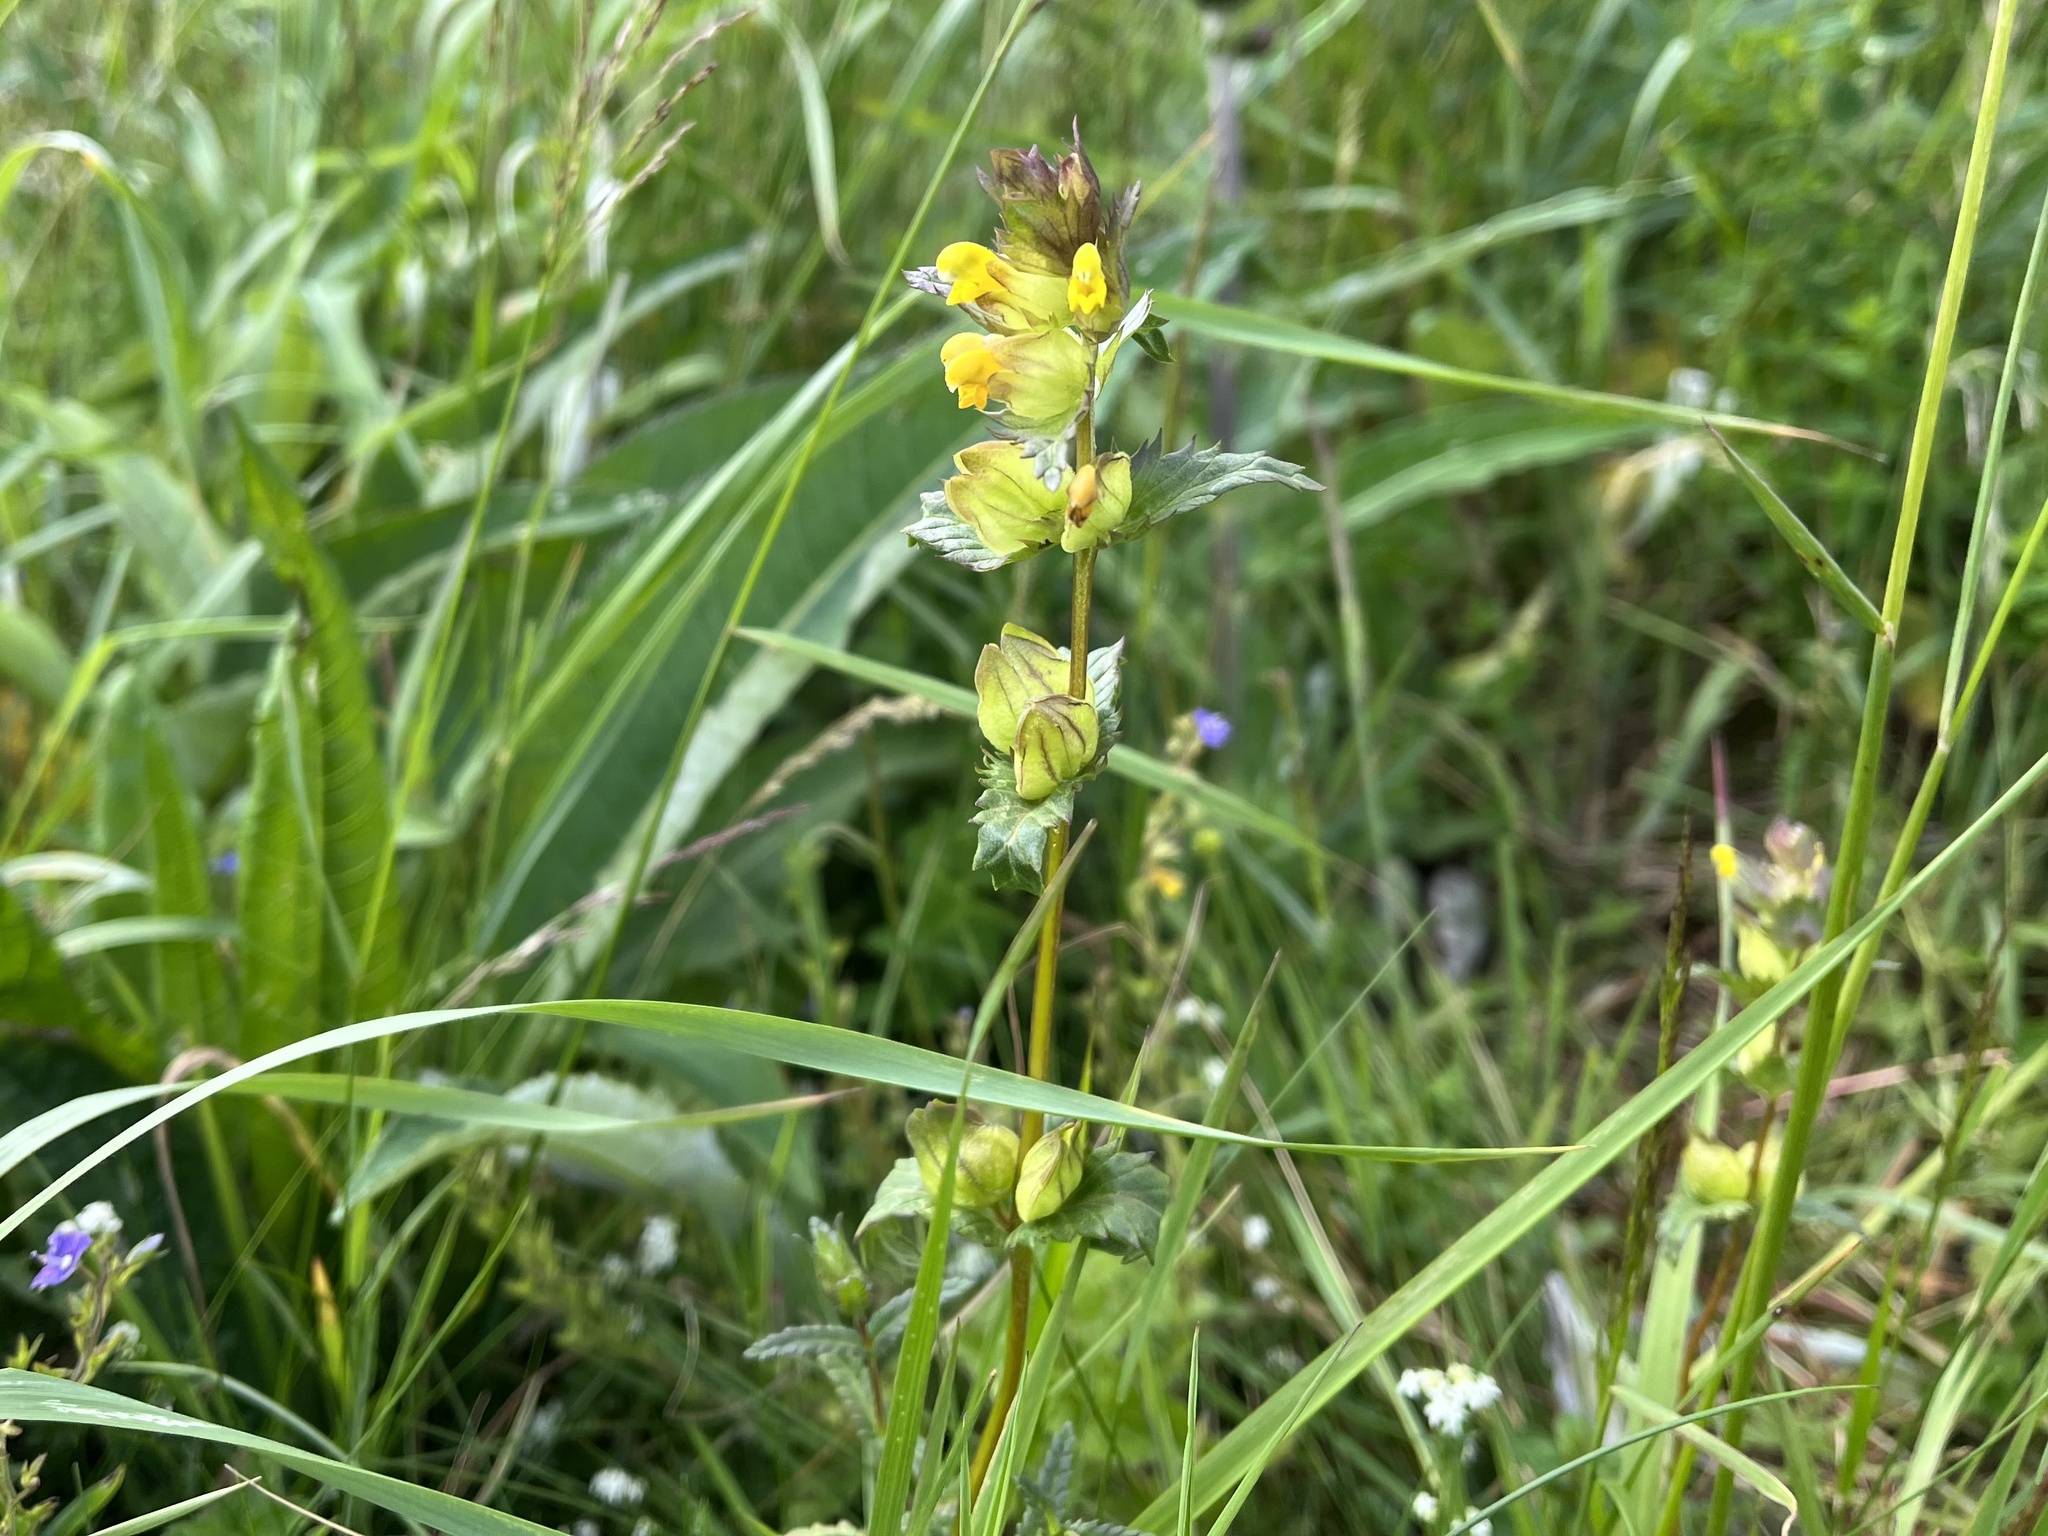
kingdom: Plantae
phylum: Tracheophyta
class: Magnoliopsida
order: Lamiales
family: Orobanchaceae
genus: Rhinanthus
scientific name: Rhinanthus minor
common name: Yellow-rattle
